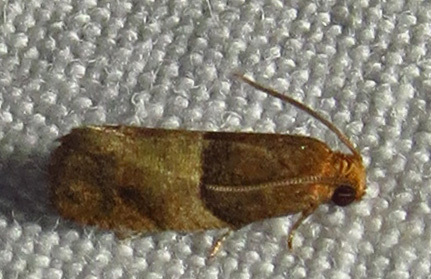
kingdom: Animalia
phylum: Arthropoda
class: Insecta
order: Lepidoptera
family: Tortricidae
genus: Larisa
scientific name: Larisa subsolana
